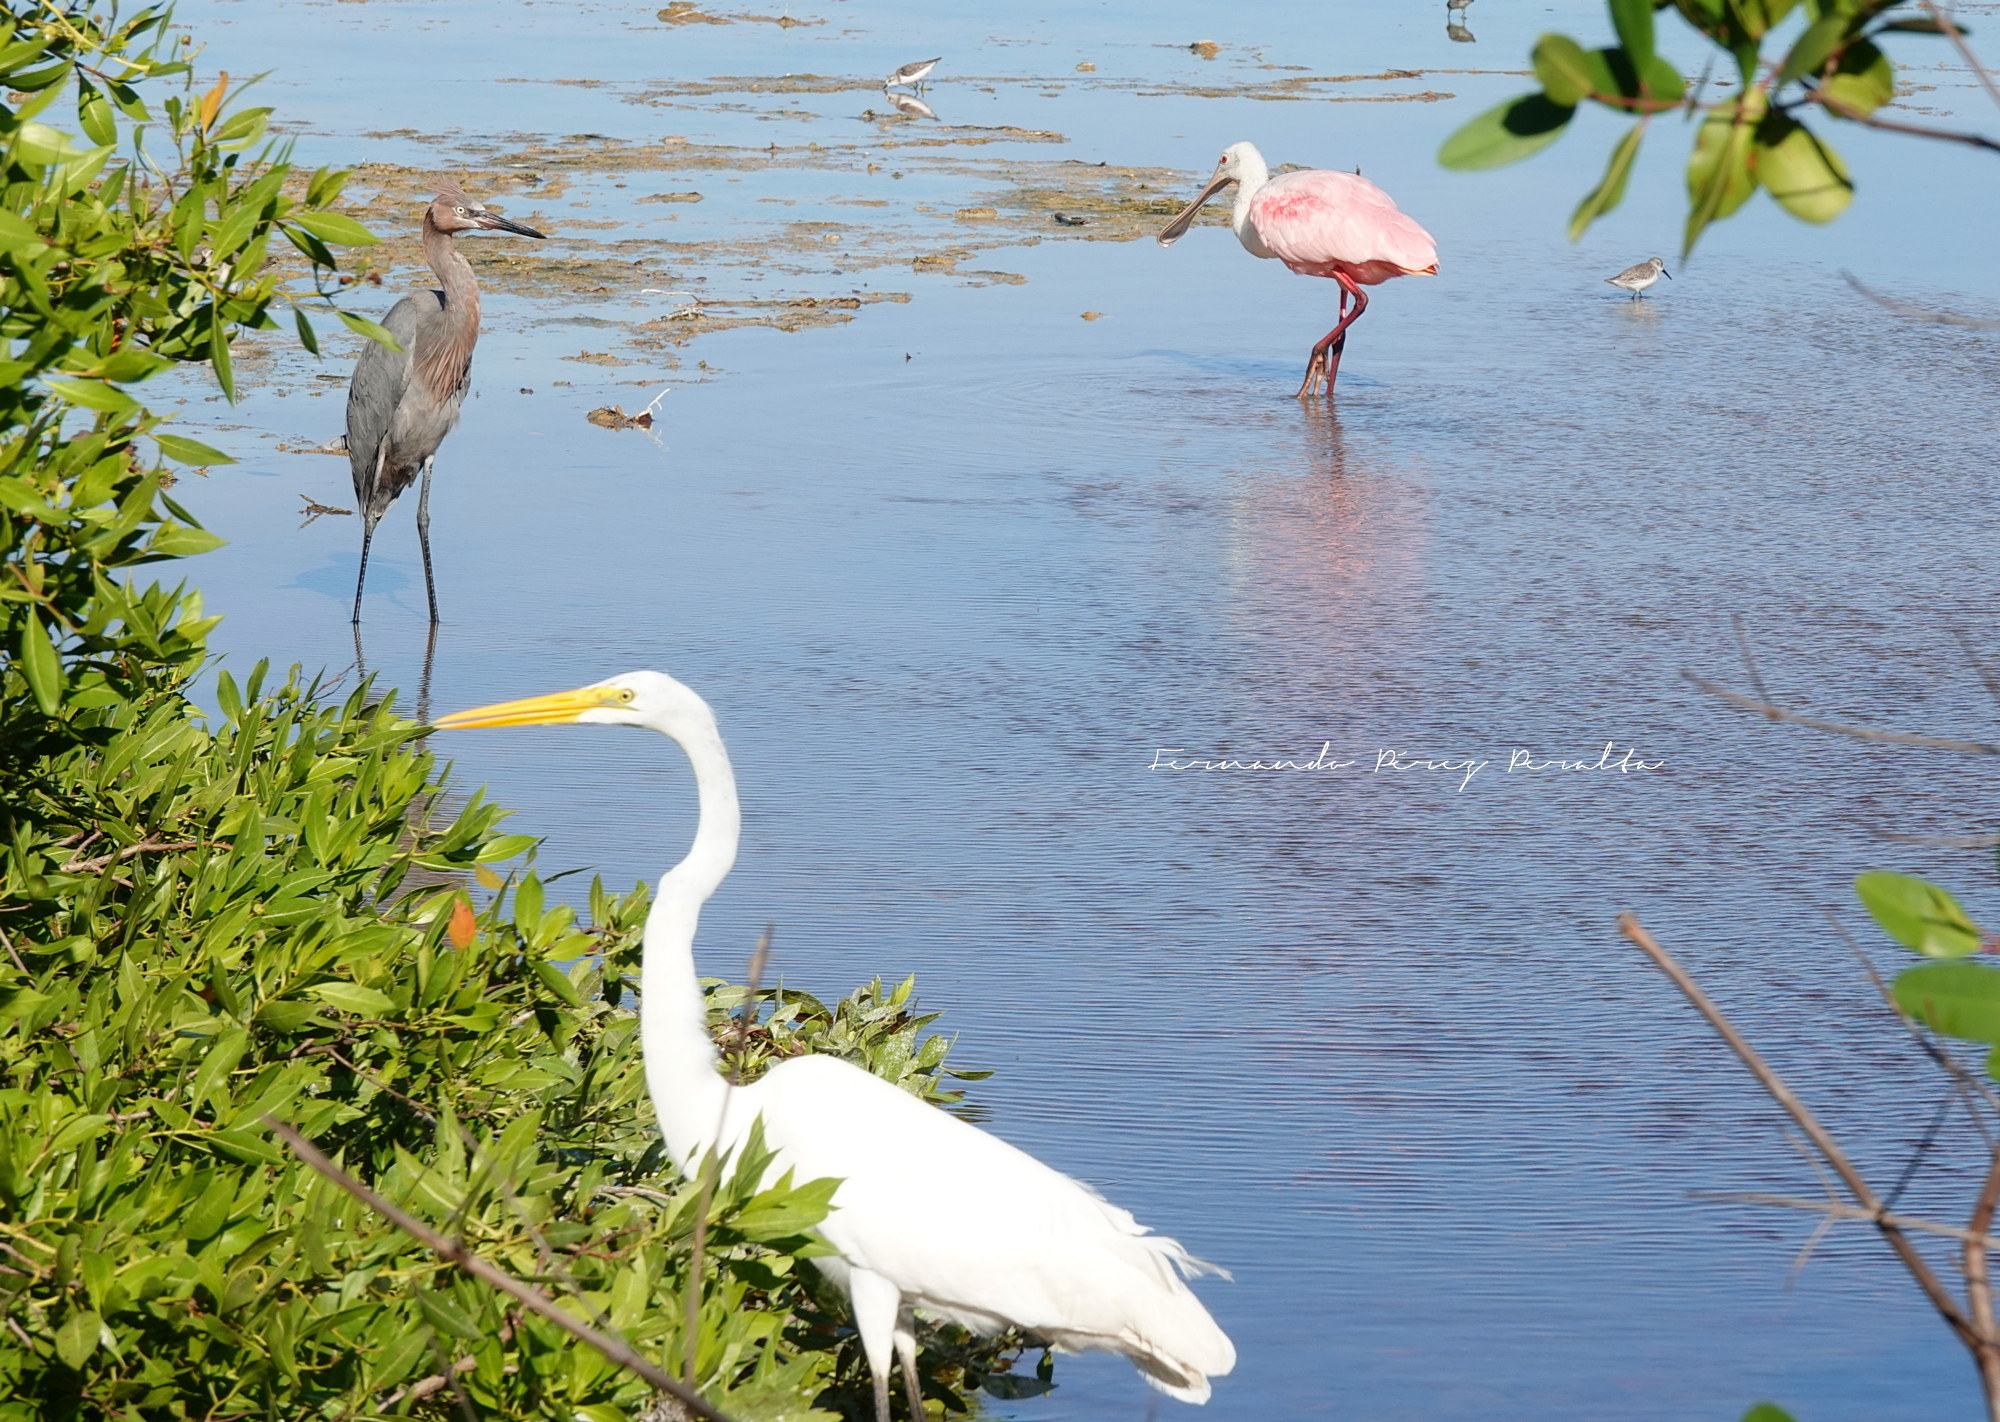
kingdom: Animalia
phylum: Chordata
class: Aves
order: Pelecaniformes
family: Ardeidae
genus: Ardea
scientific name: Ardea alba
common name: Great egret
